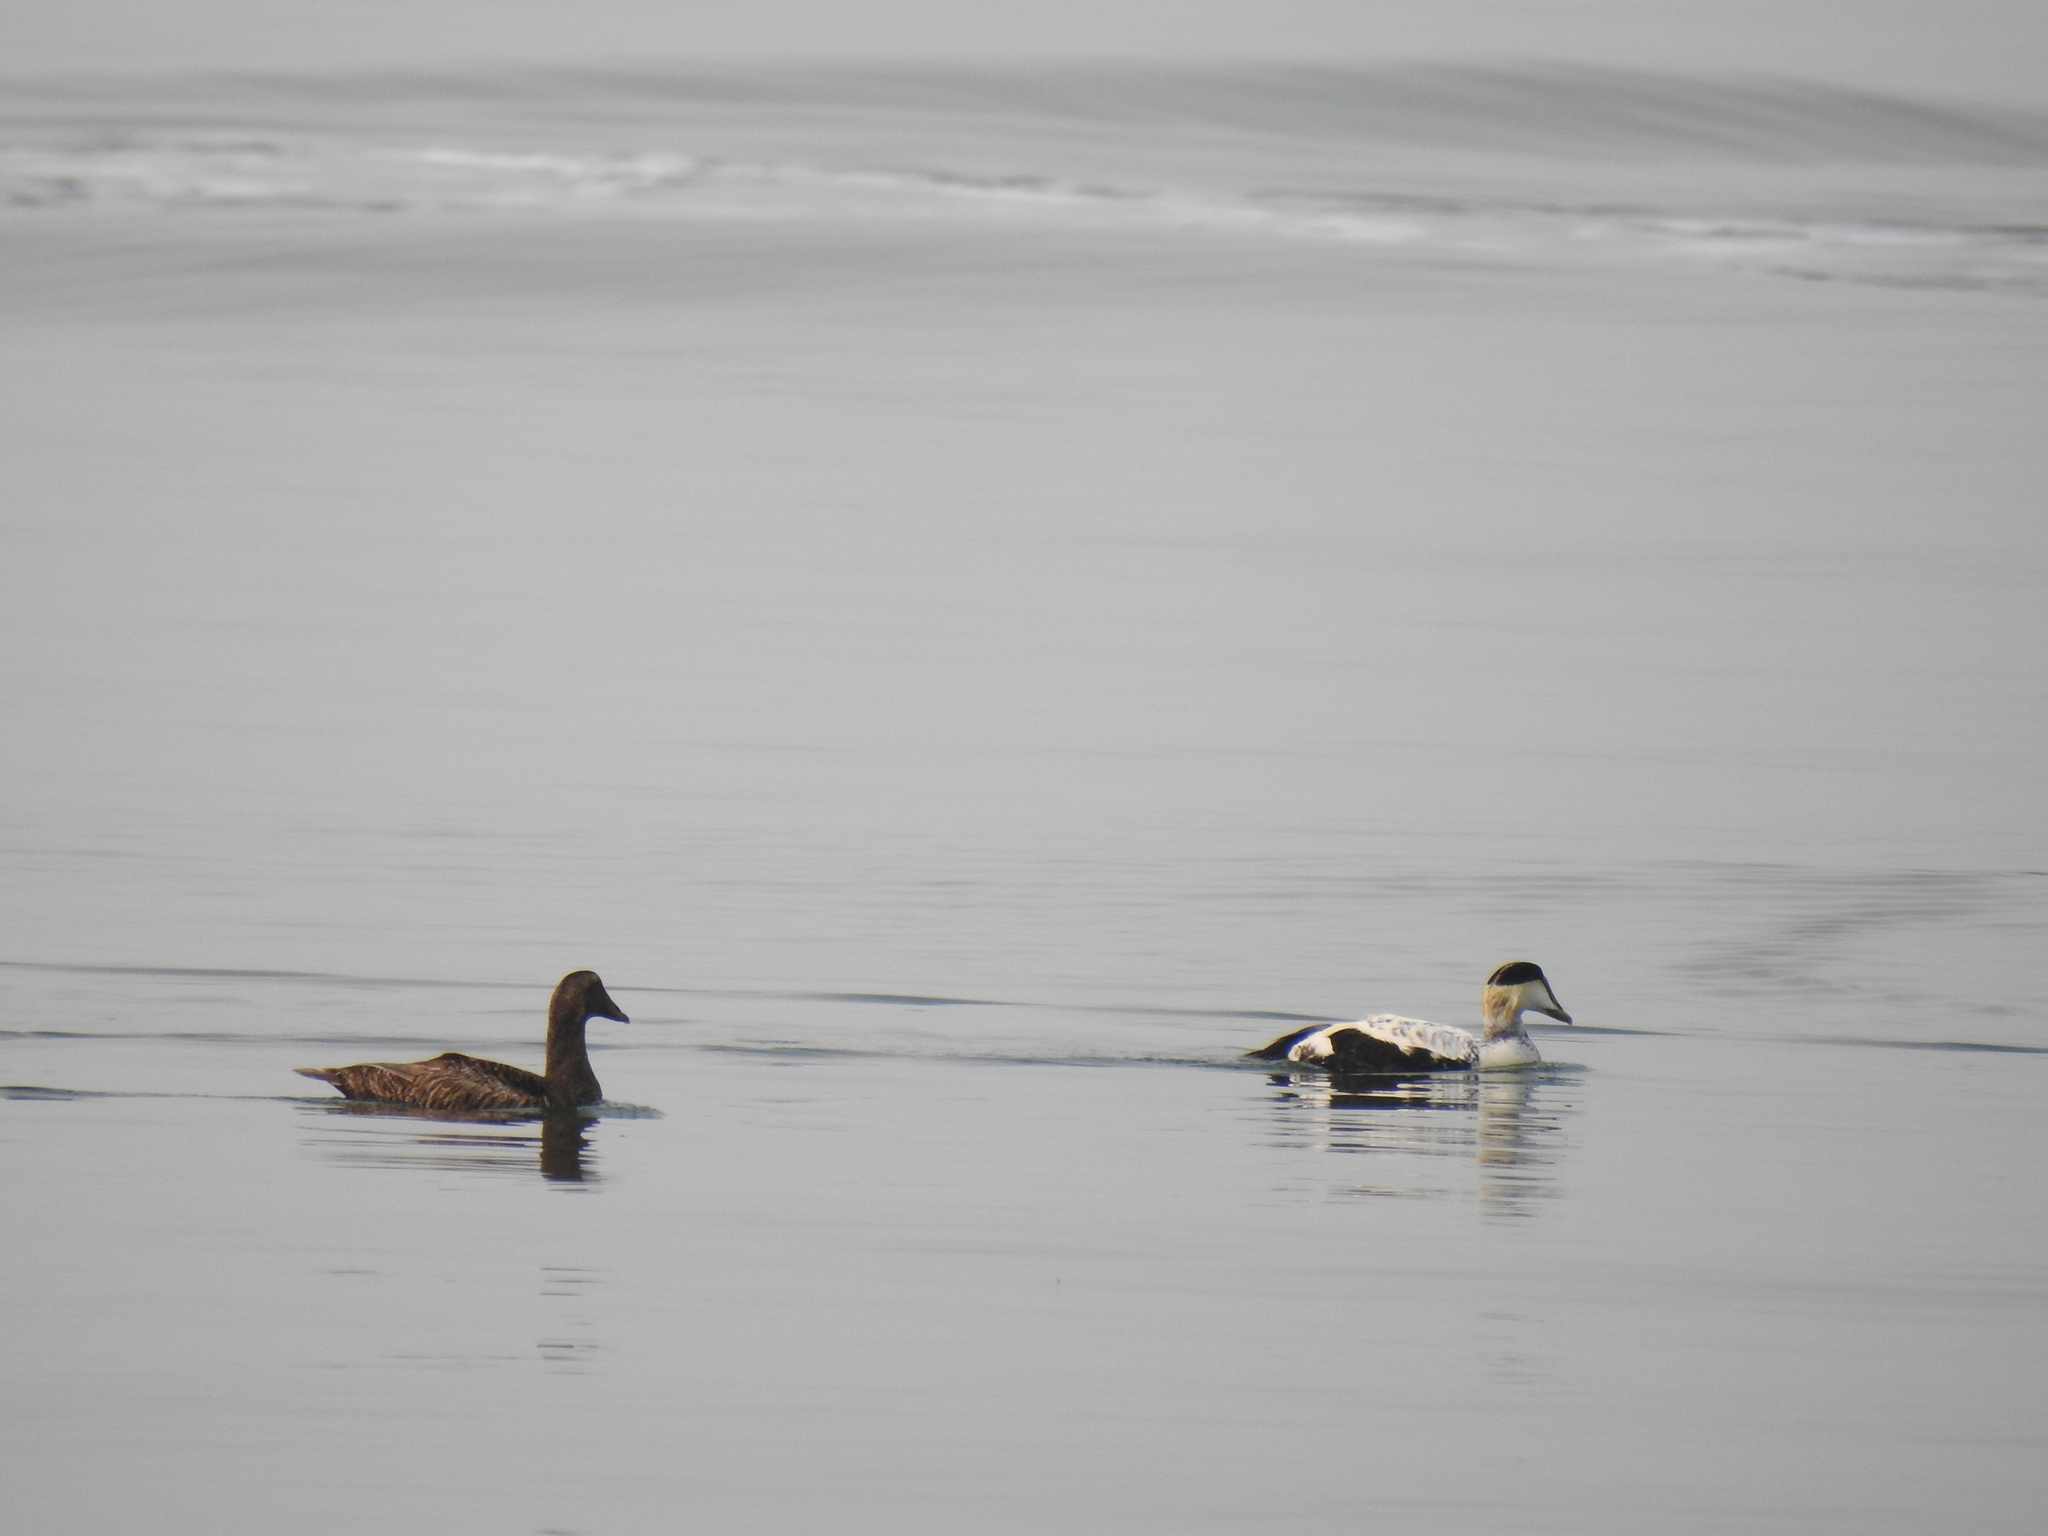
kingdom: Animalia
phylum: Chordata
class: Aves
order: Anseriformes
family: Anatidae
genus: Somateria
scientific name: Somateria mollissima
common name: Common eider
